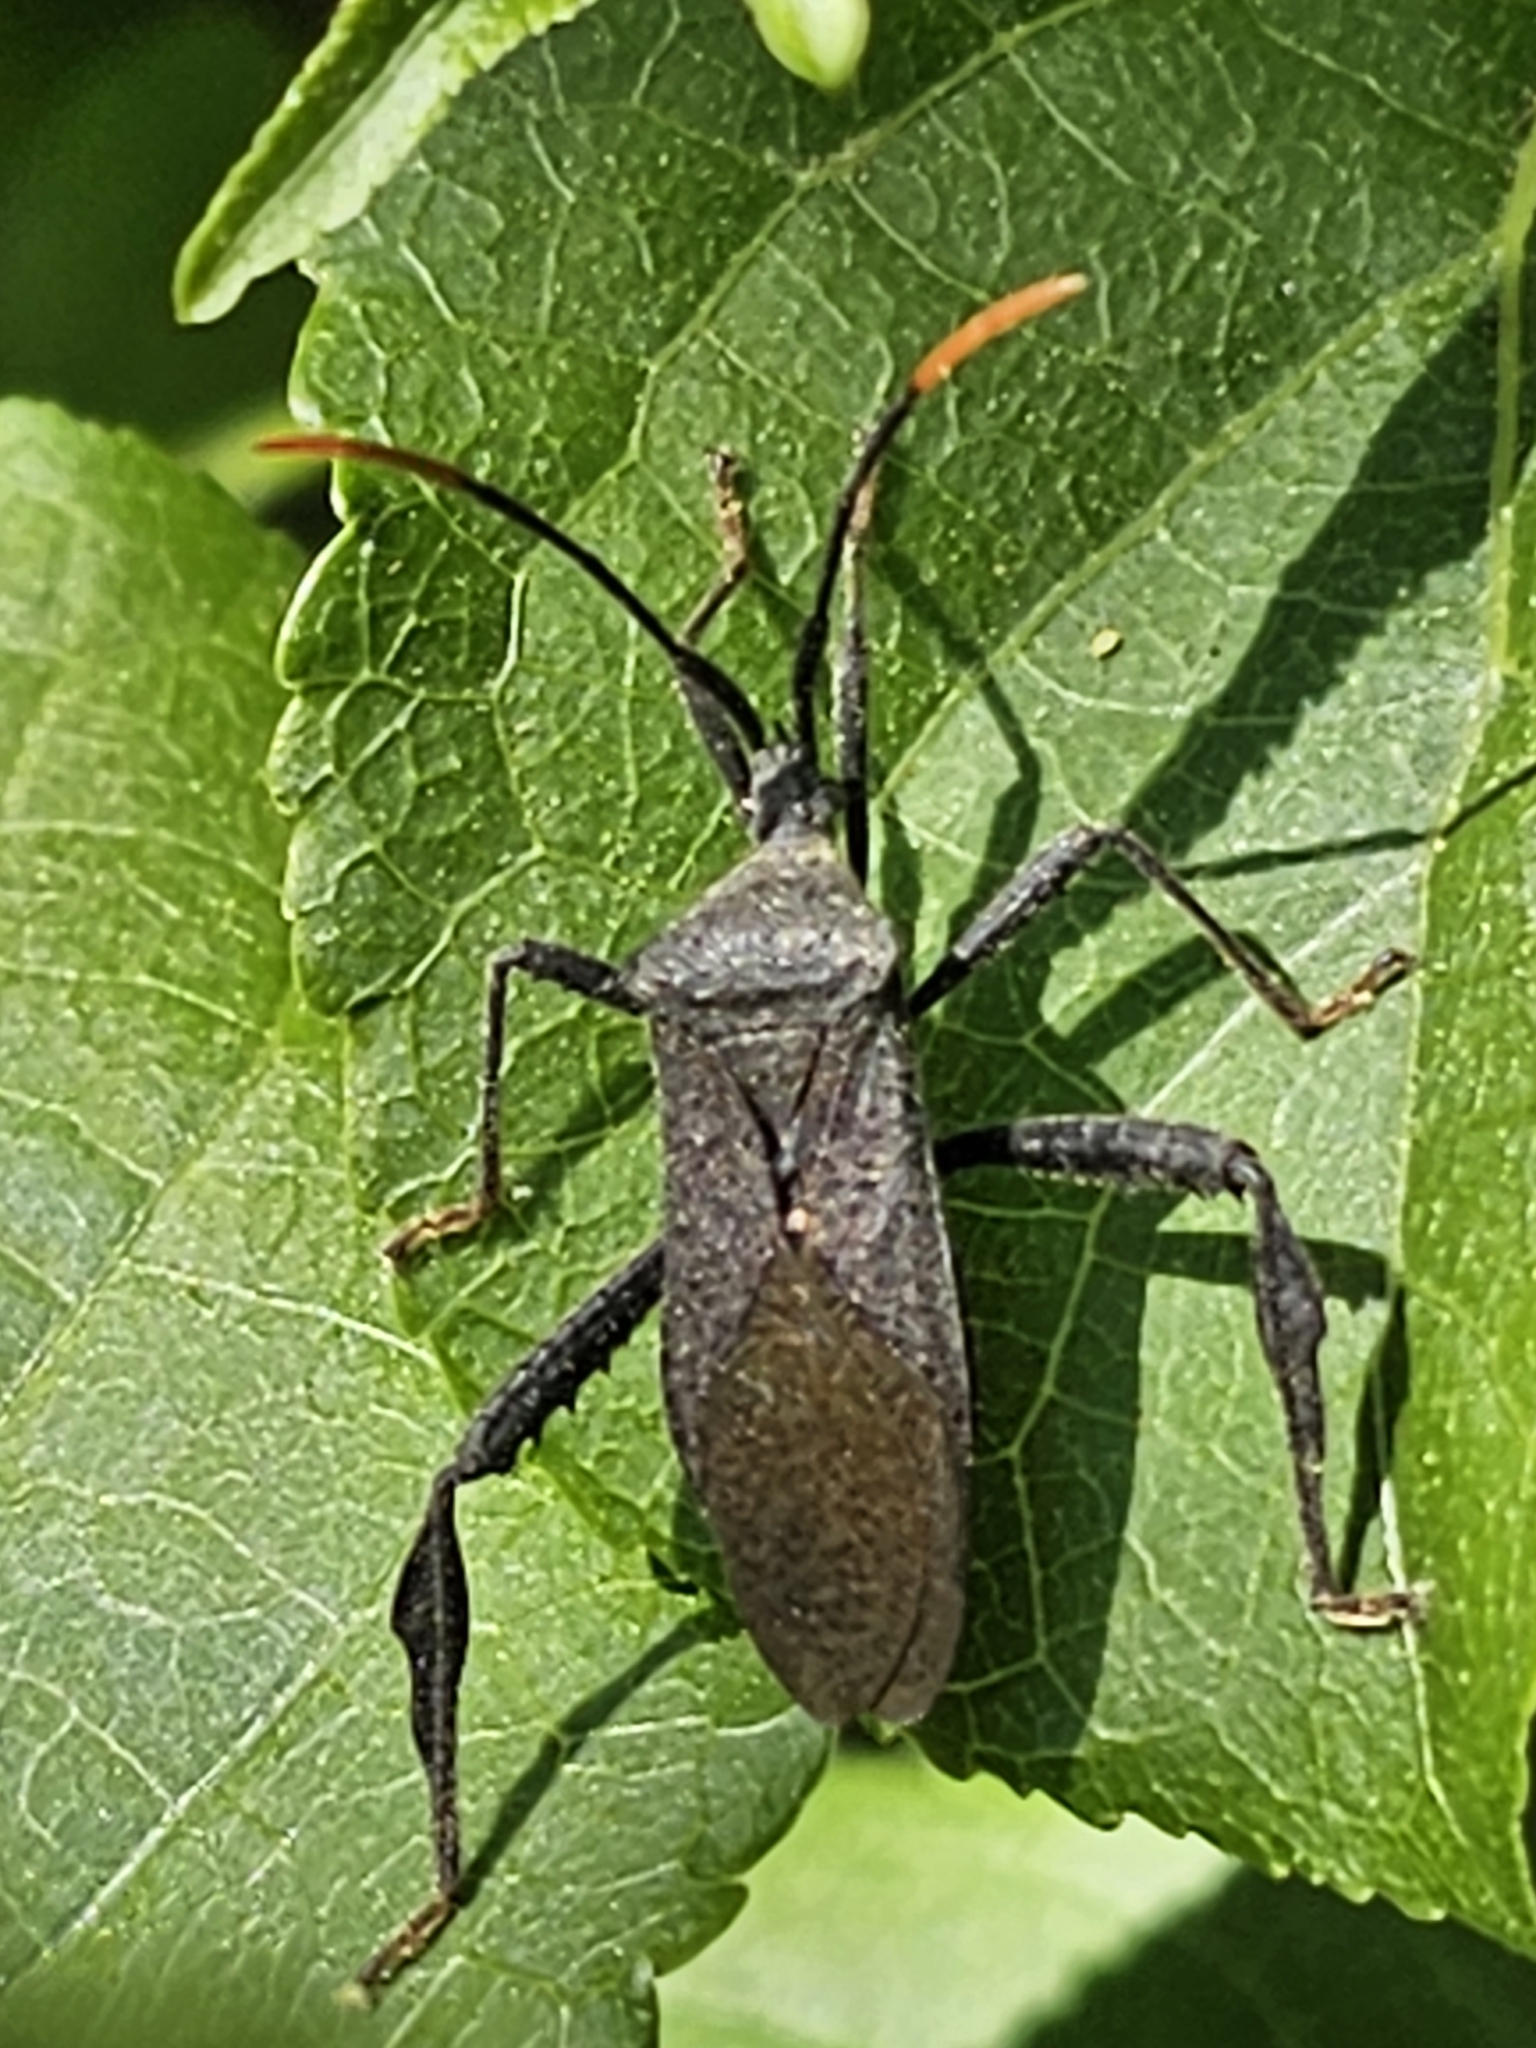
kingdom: Animalia
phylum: Arthropoda
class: Insecta
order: Hemiptera
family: Coreidae
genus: Acanthocephala
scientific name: Acanthocephala terminalis
